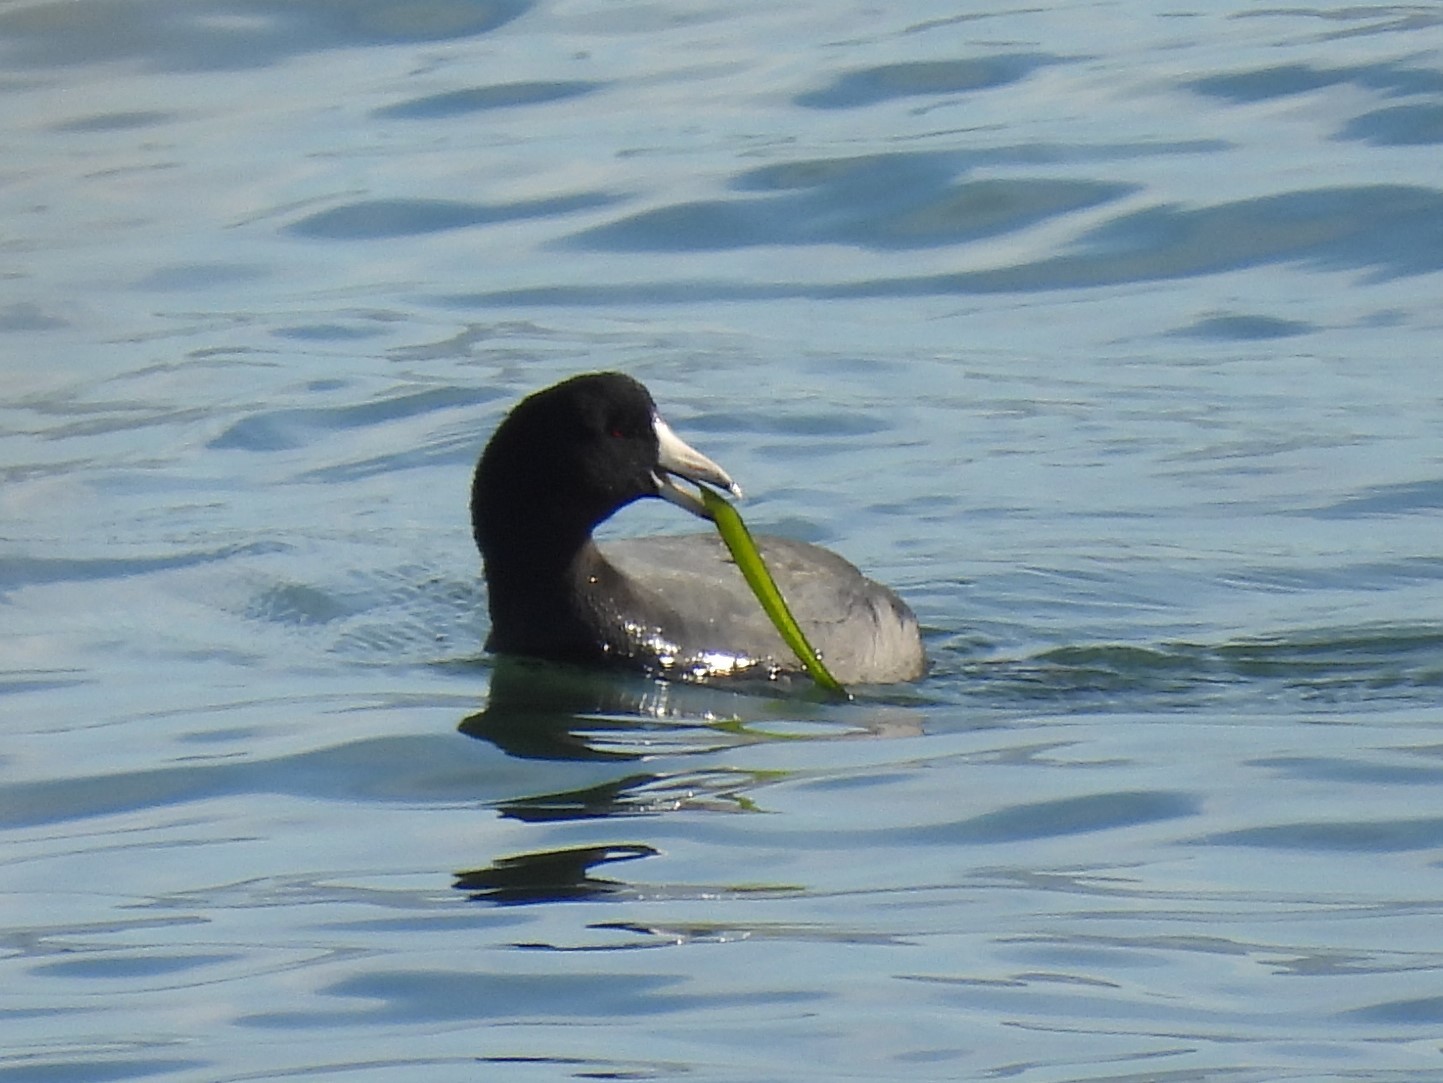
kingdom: Animalia
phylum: Chordata
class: Aves
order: Gruiformes
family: Rallidae
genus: Fulica
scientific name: Fulica americana
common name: American coot
